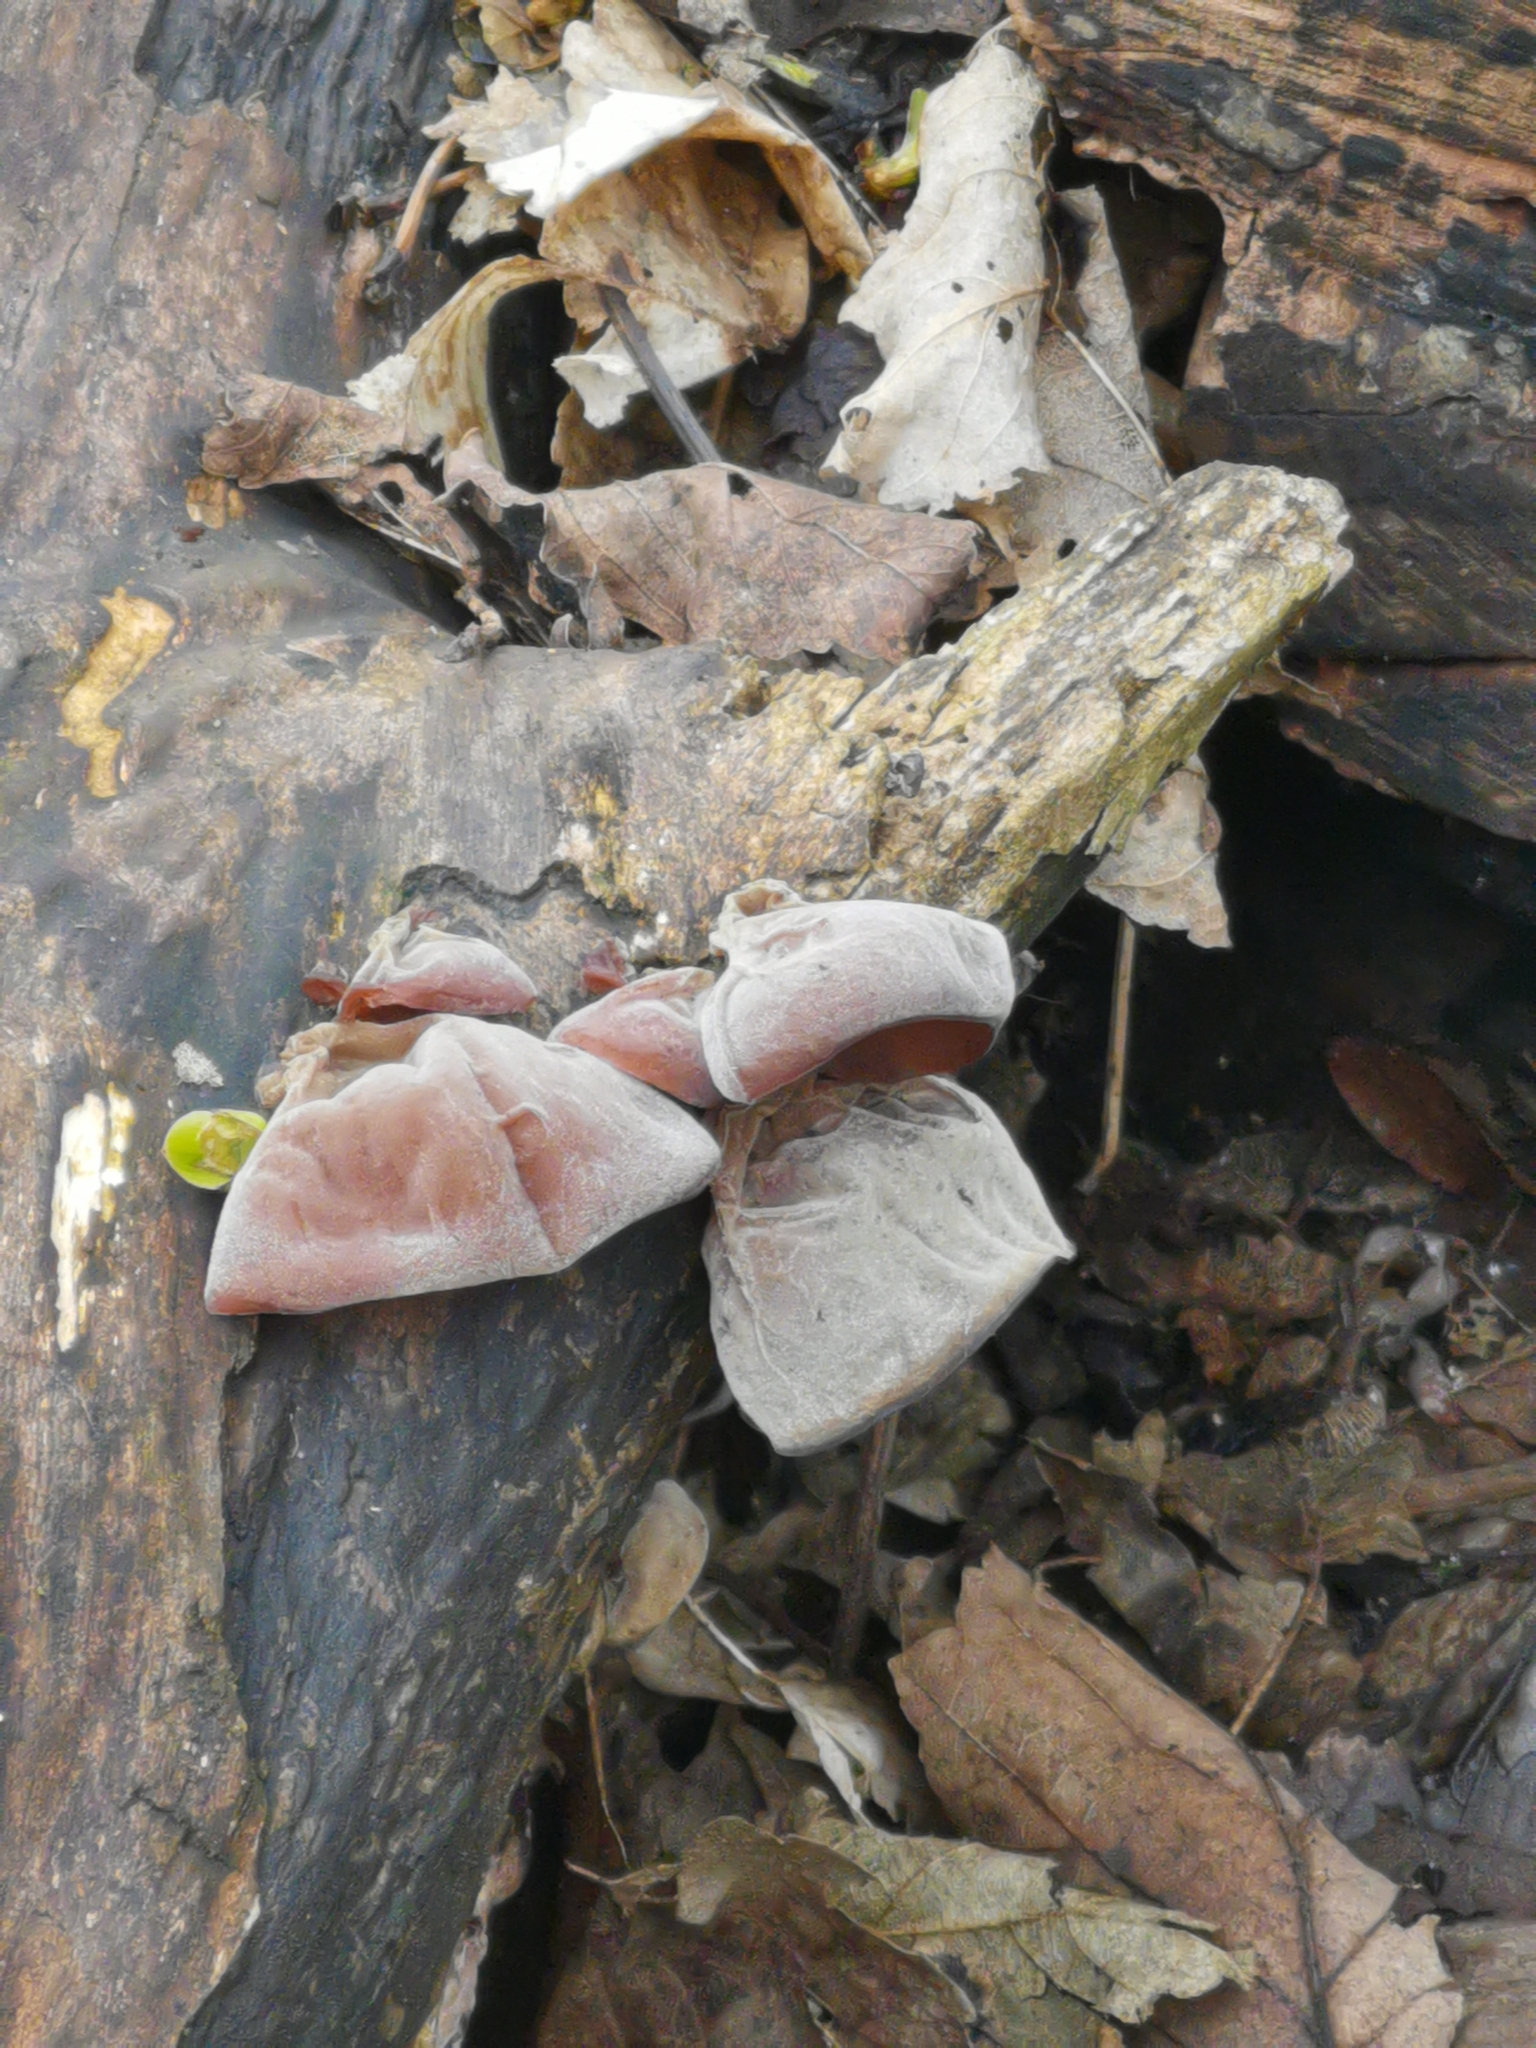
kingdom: Fungi
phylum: Basidiomycota
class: Agaricomycetes
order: Auriculariales
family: Auriculariaceae
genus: Auricularia
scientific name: Auricularia auricula-judae
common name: Jelly ear
